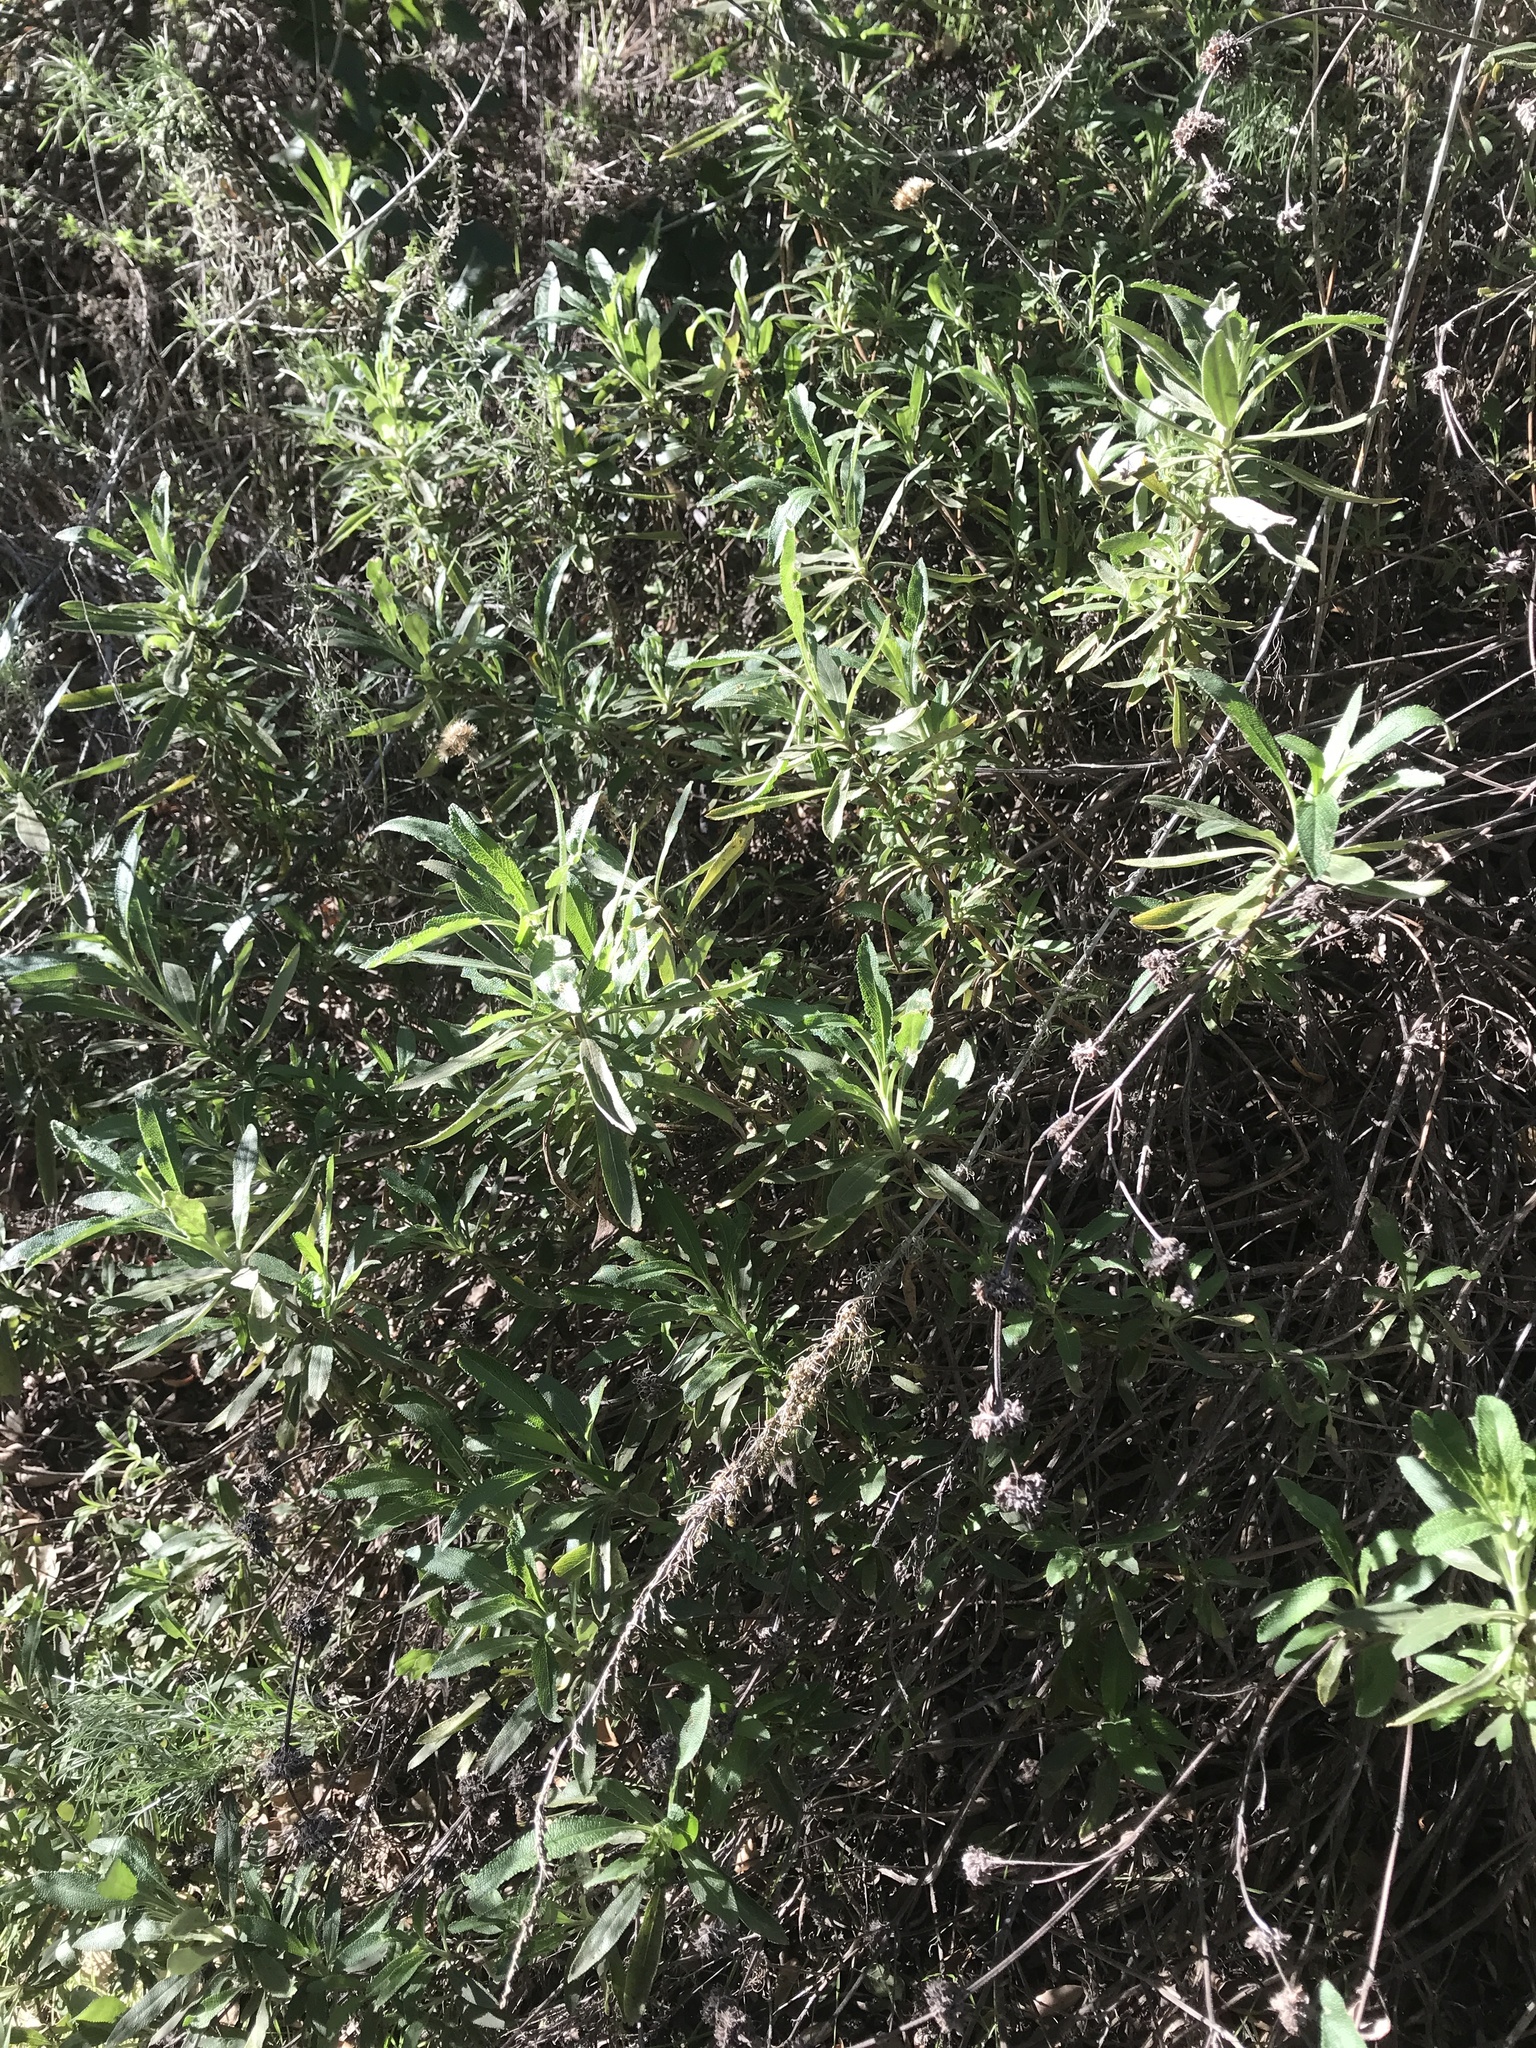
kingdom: Plantae
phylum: Tracheophyta
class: Magnoliopsida
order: Asterales
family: Asteraceae
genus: Baccharis
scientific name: Baccharis salicifolia
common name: Sticky baccharis
